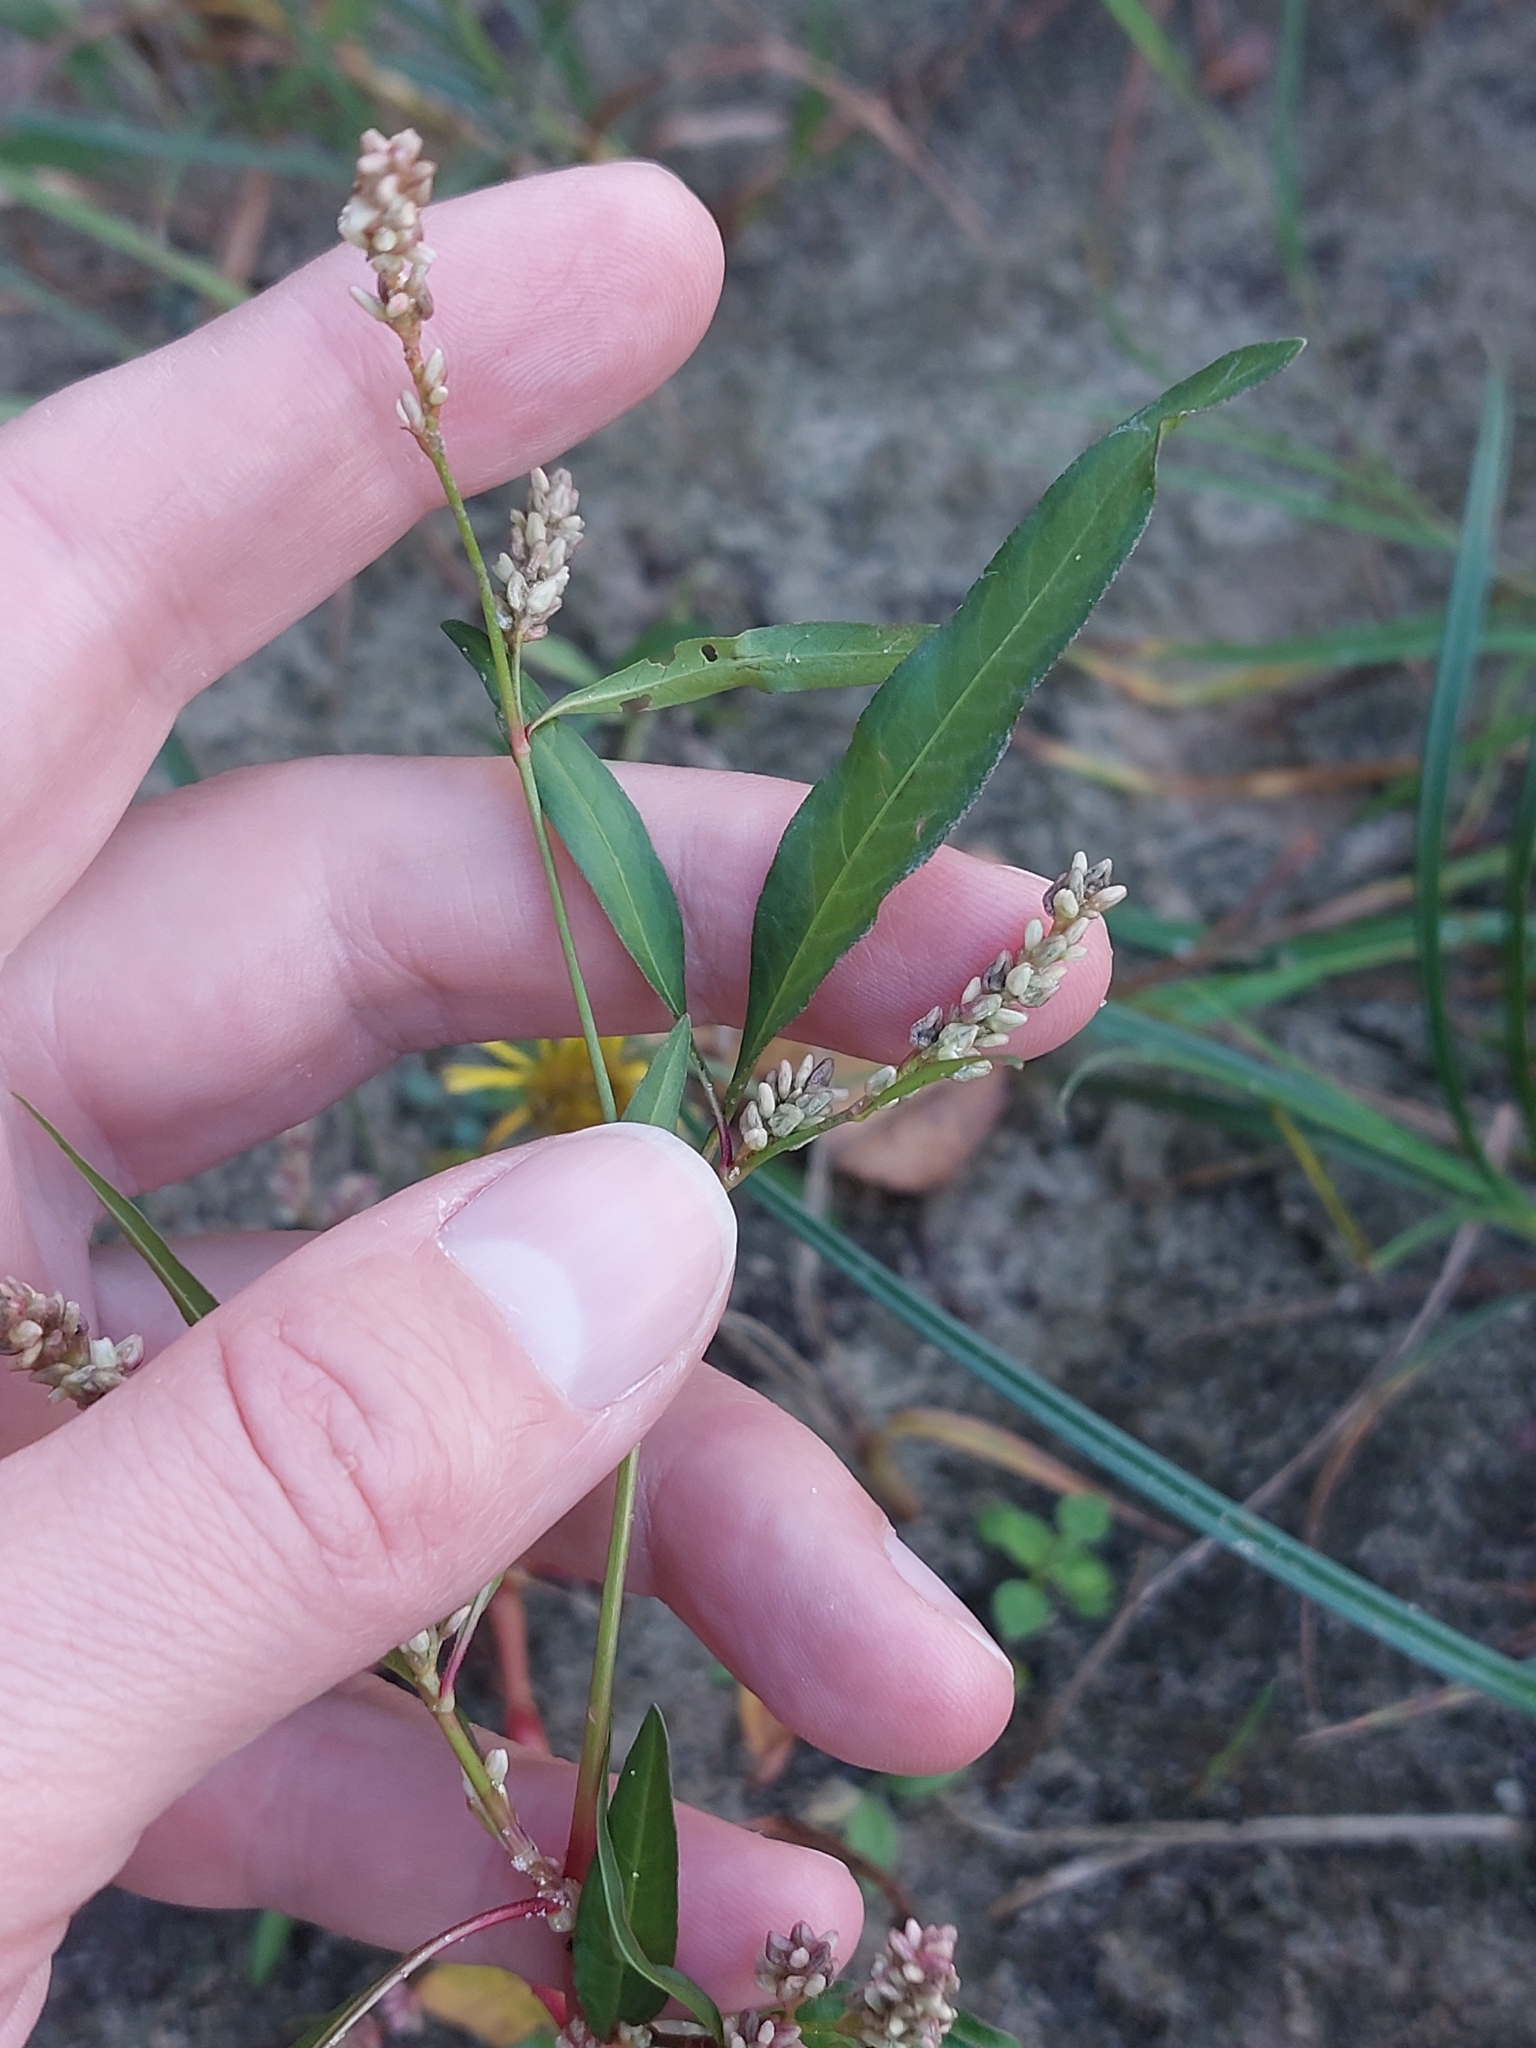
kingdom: Plantae
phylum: Tracheophyta
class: Magnoliopsida
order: Caryophyllales
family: Polygonaceae
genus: Persicaria
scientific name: Persicaria lapathifolia
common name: Curlytop knotweed
